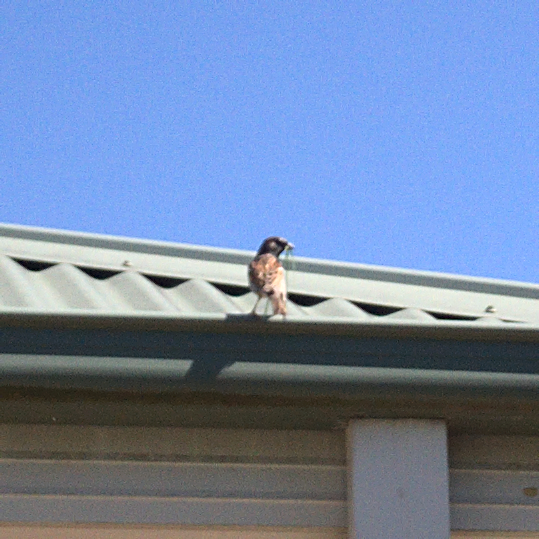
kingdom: Animalia
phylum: Chordata
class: Aves
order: Passeriformes
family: Passeridae
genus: Passer
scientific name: Passer domesticus
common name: House sparrow
